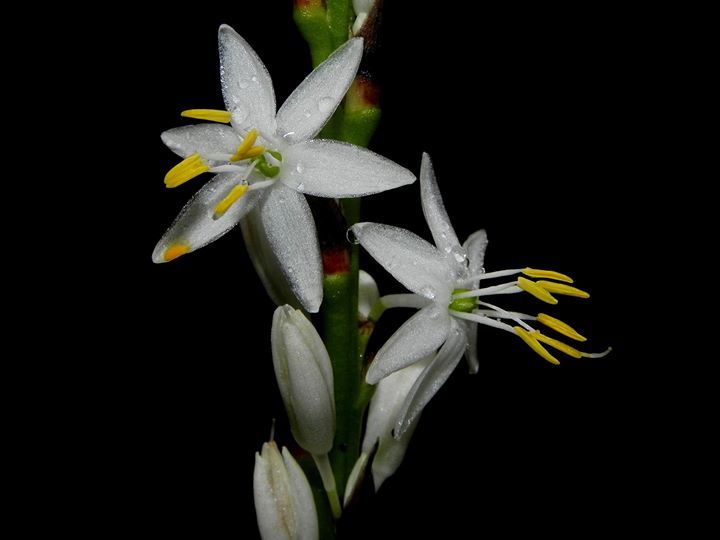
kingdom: Plantae
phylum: Tracheophyta
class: Liliopsida
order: Asparagales
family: Asparagaceae
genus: Chlorophytum
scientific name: Chlorophytum breviscapum
